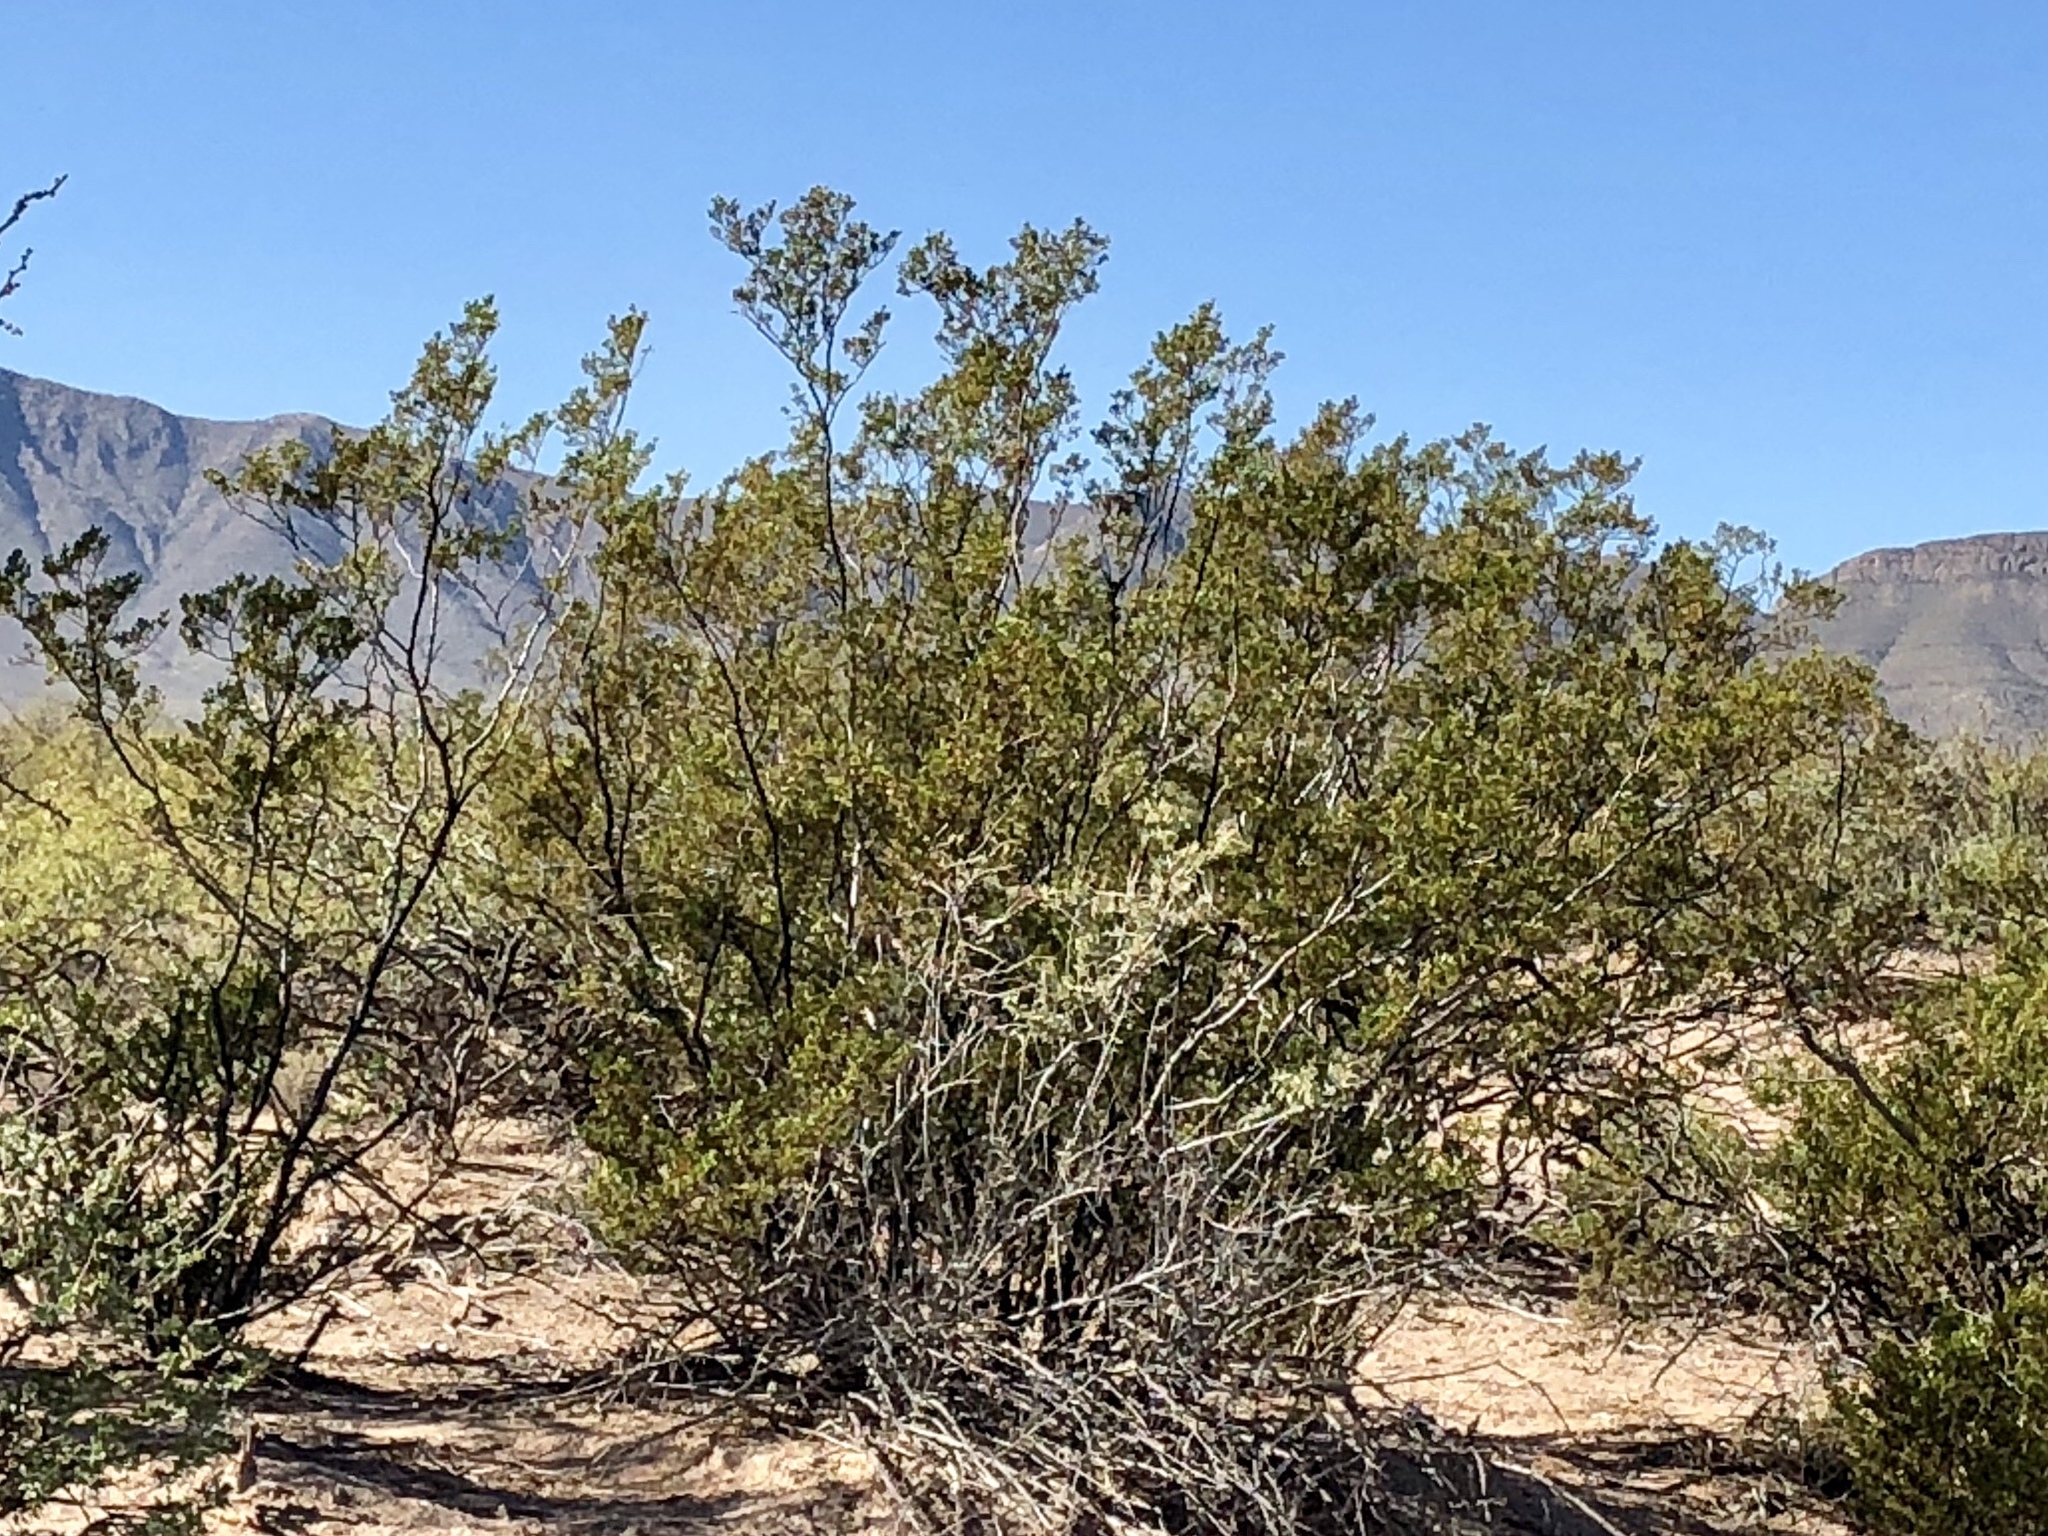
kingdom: Plantae
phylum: Tracheophyta
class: Magnoliopsida
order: Zygophyllales
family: Zygophyllaceae
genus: Larrea
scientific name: Larrea tridentata
